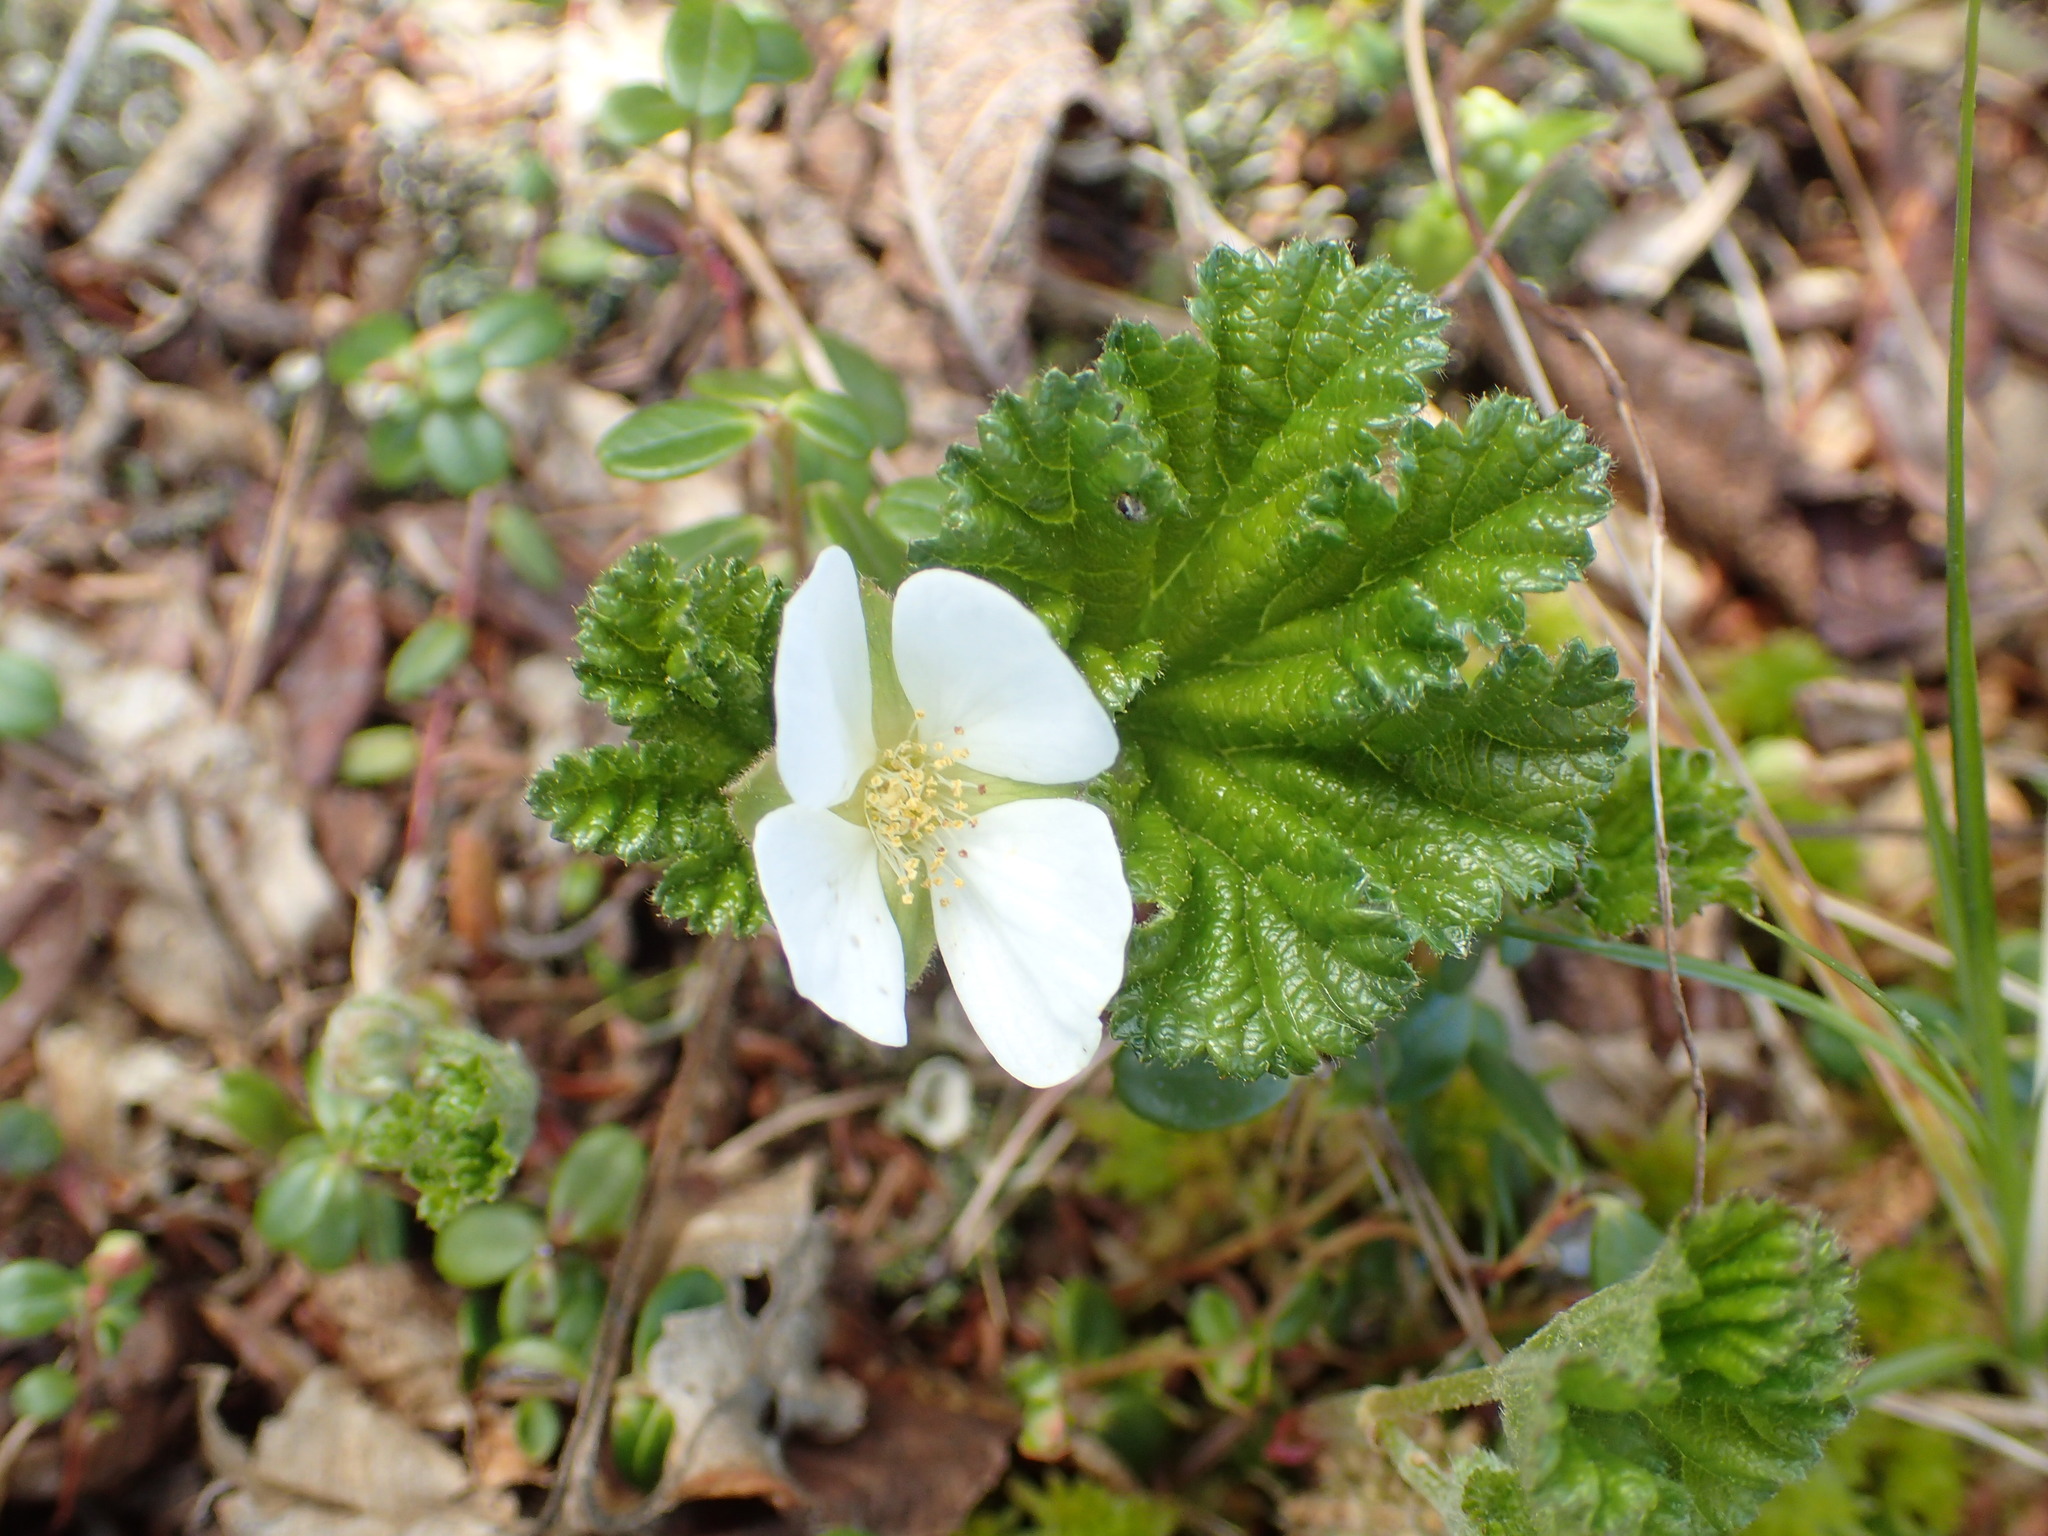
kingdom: Plantae
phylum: Tracheophyta
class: Magnoliopsida
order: Rosales
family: Rosaceae
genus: Rubus
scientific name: Rubus chamaemorus
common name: Cloudberry
